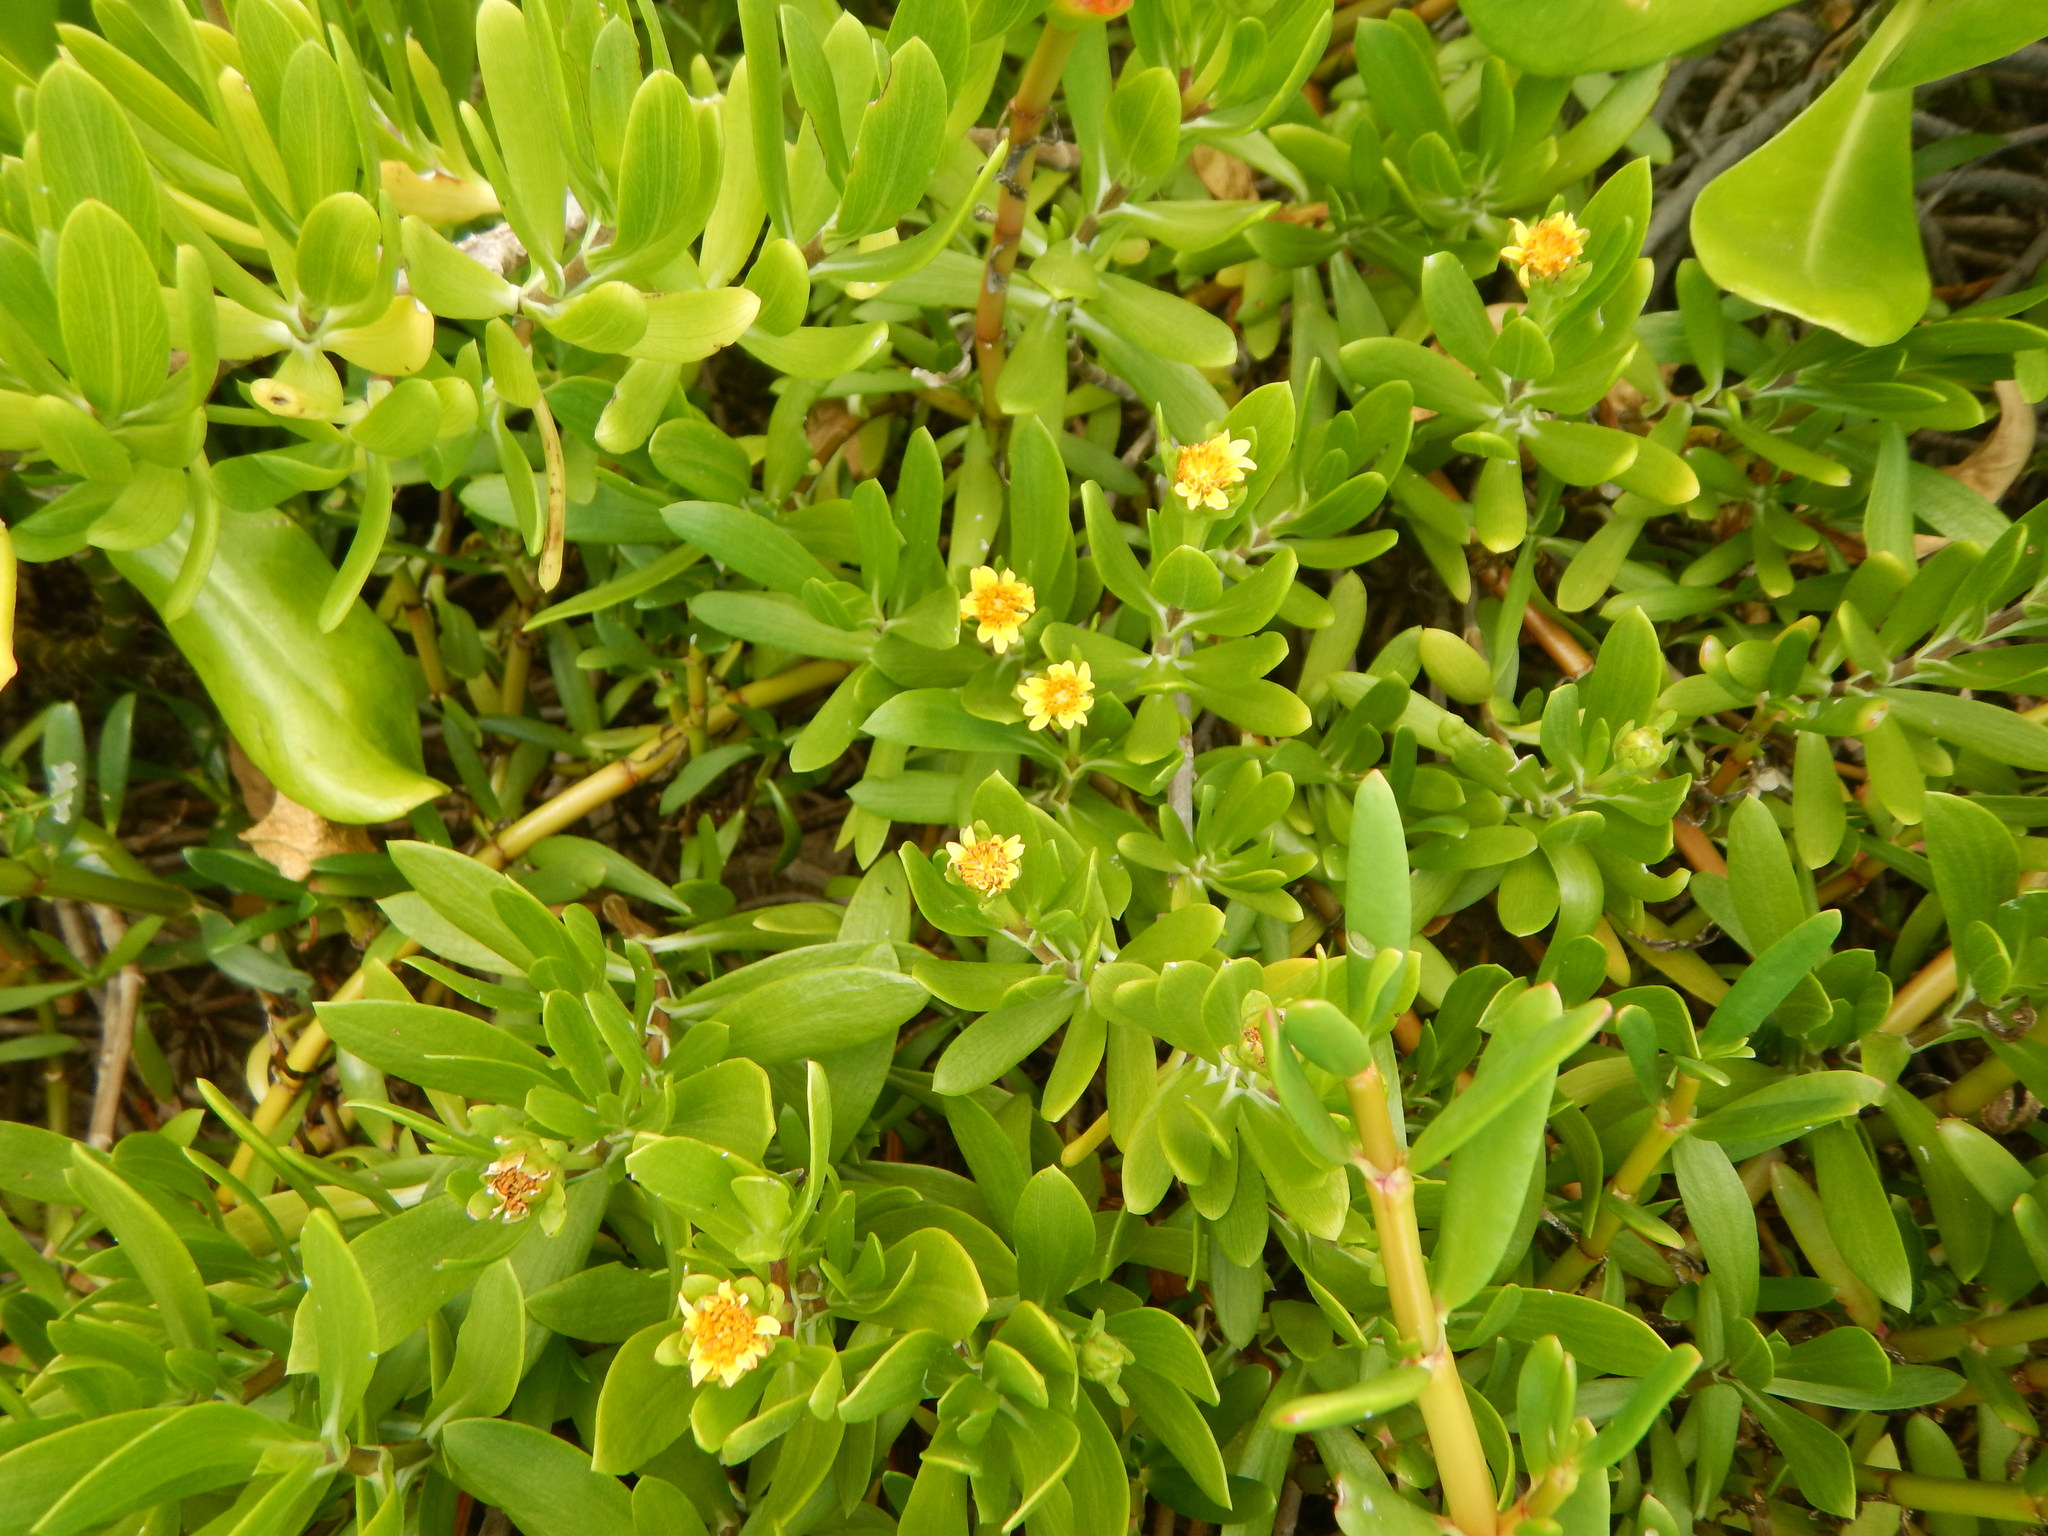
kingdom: Plantae
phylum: Tracheophyta
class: Magnoliopsida
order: Asterales
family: Asteraceae
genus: Borrichia
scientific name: Borrichia arborescens
